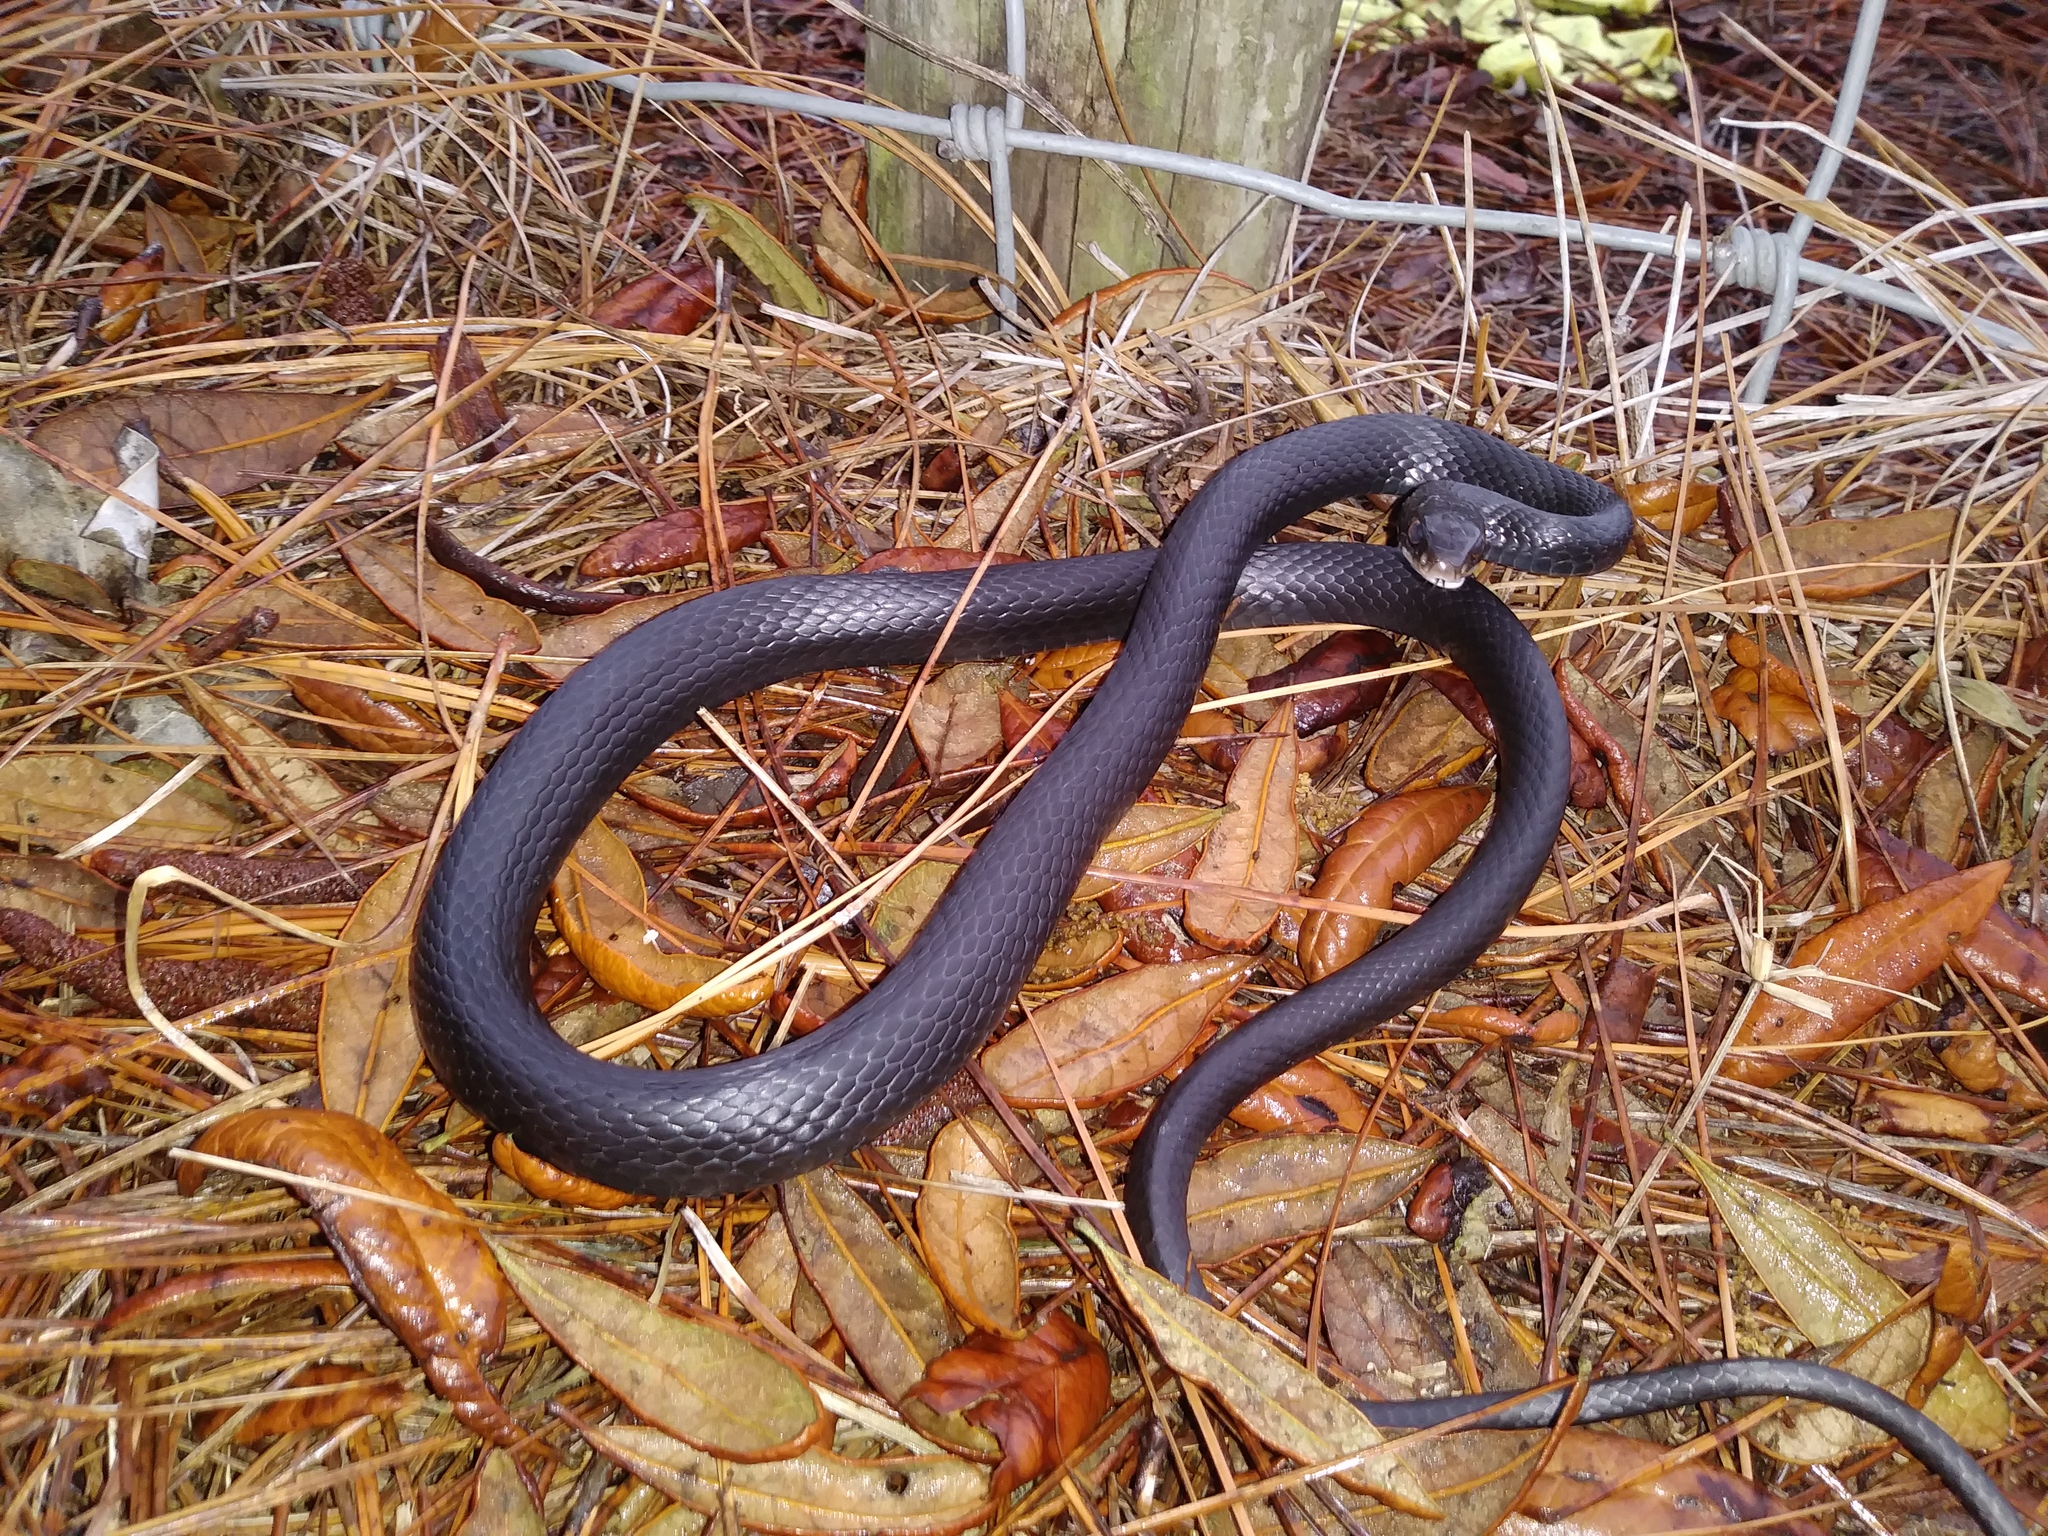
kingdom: Animalia
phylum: Chordata
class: Squamata
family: Colubridae
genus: Coluber
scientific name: Coluber constrictor
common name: Eastern racer
